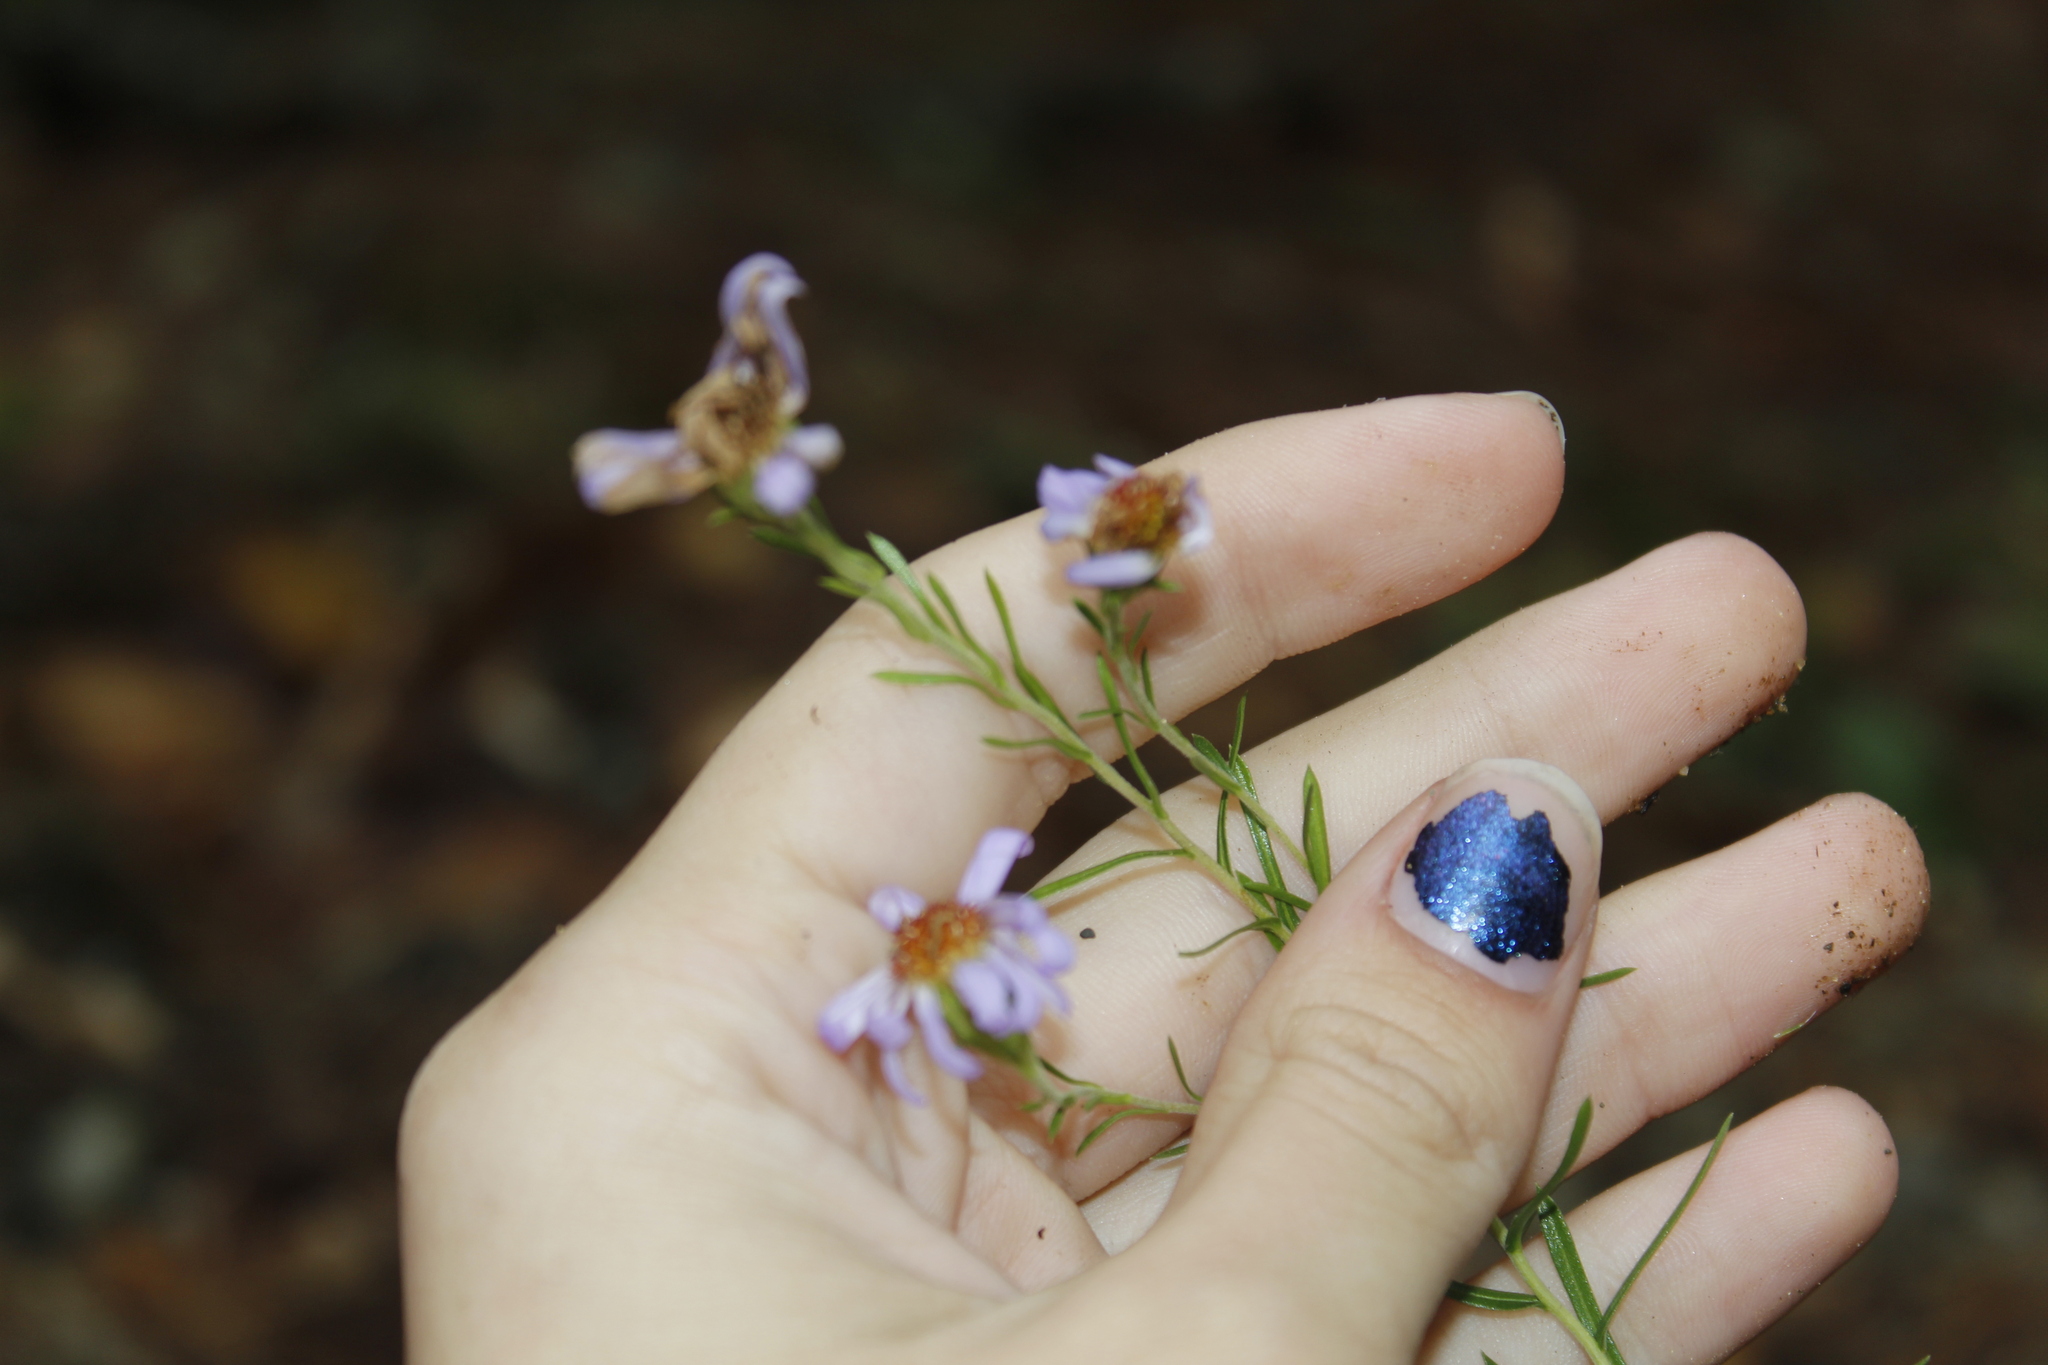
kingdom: Plantae
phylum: Tracheophyta
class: Magnoliopsida
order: Asterales
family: Asteraceae
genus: Ionactis
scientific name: Ionactis linariifolia
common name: Flax-leaf aster
